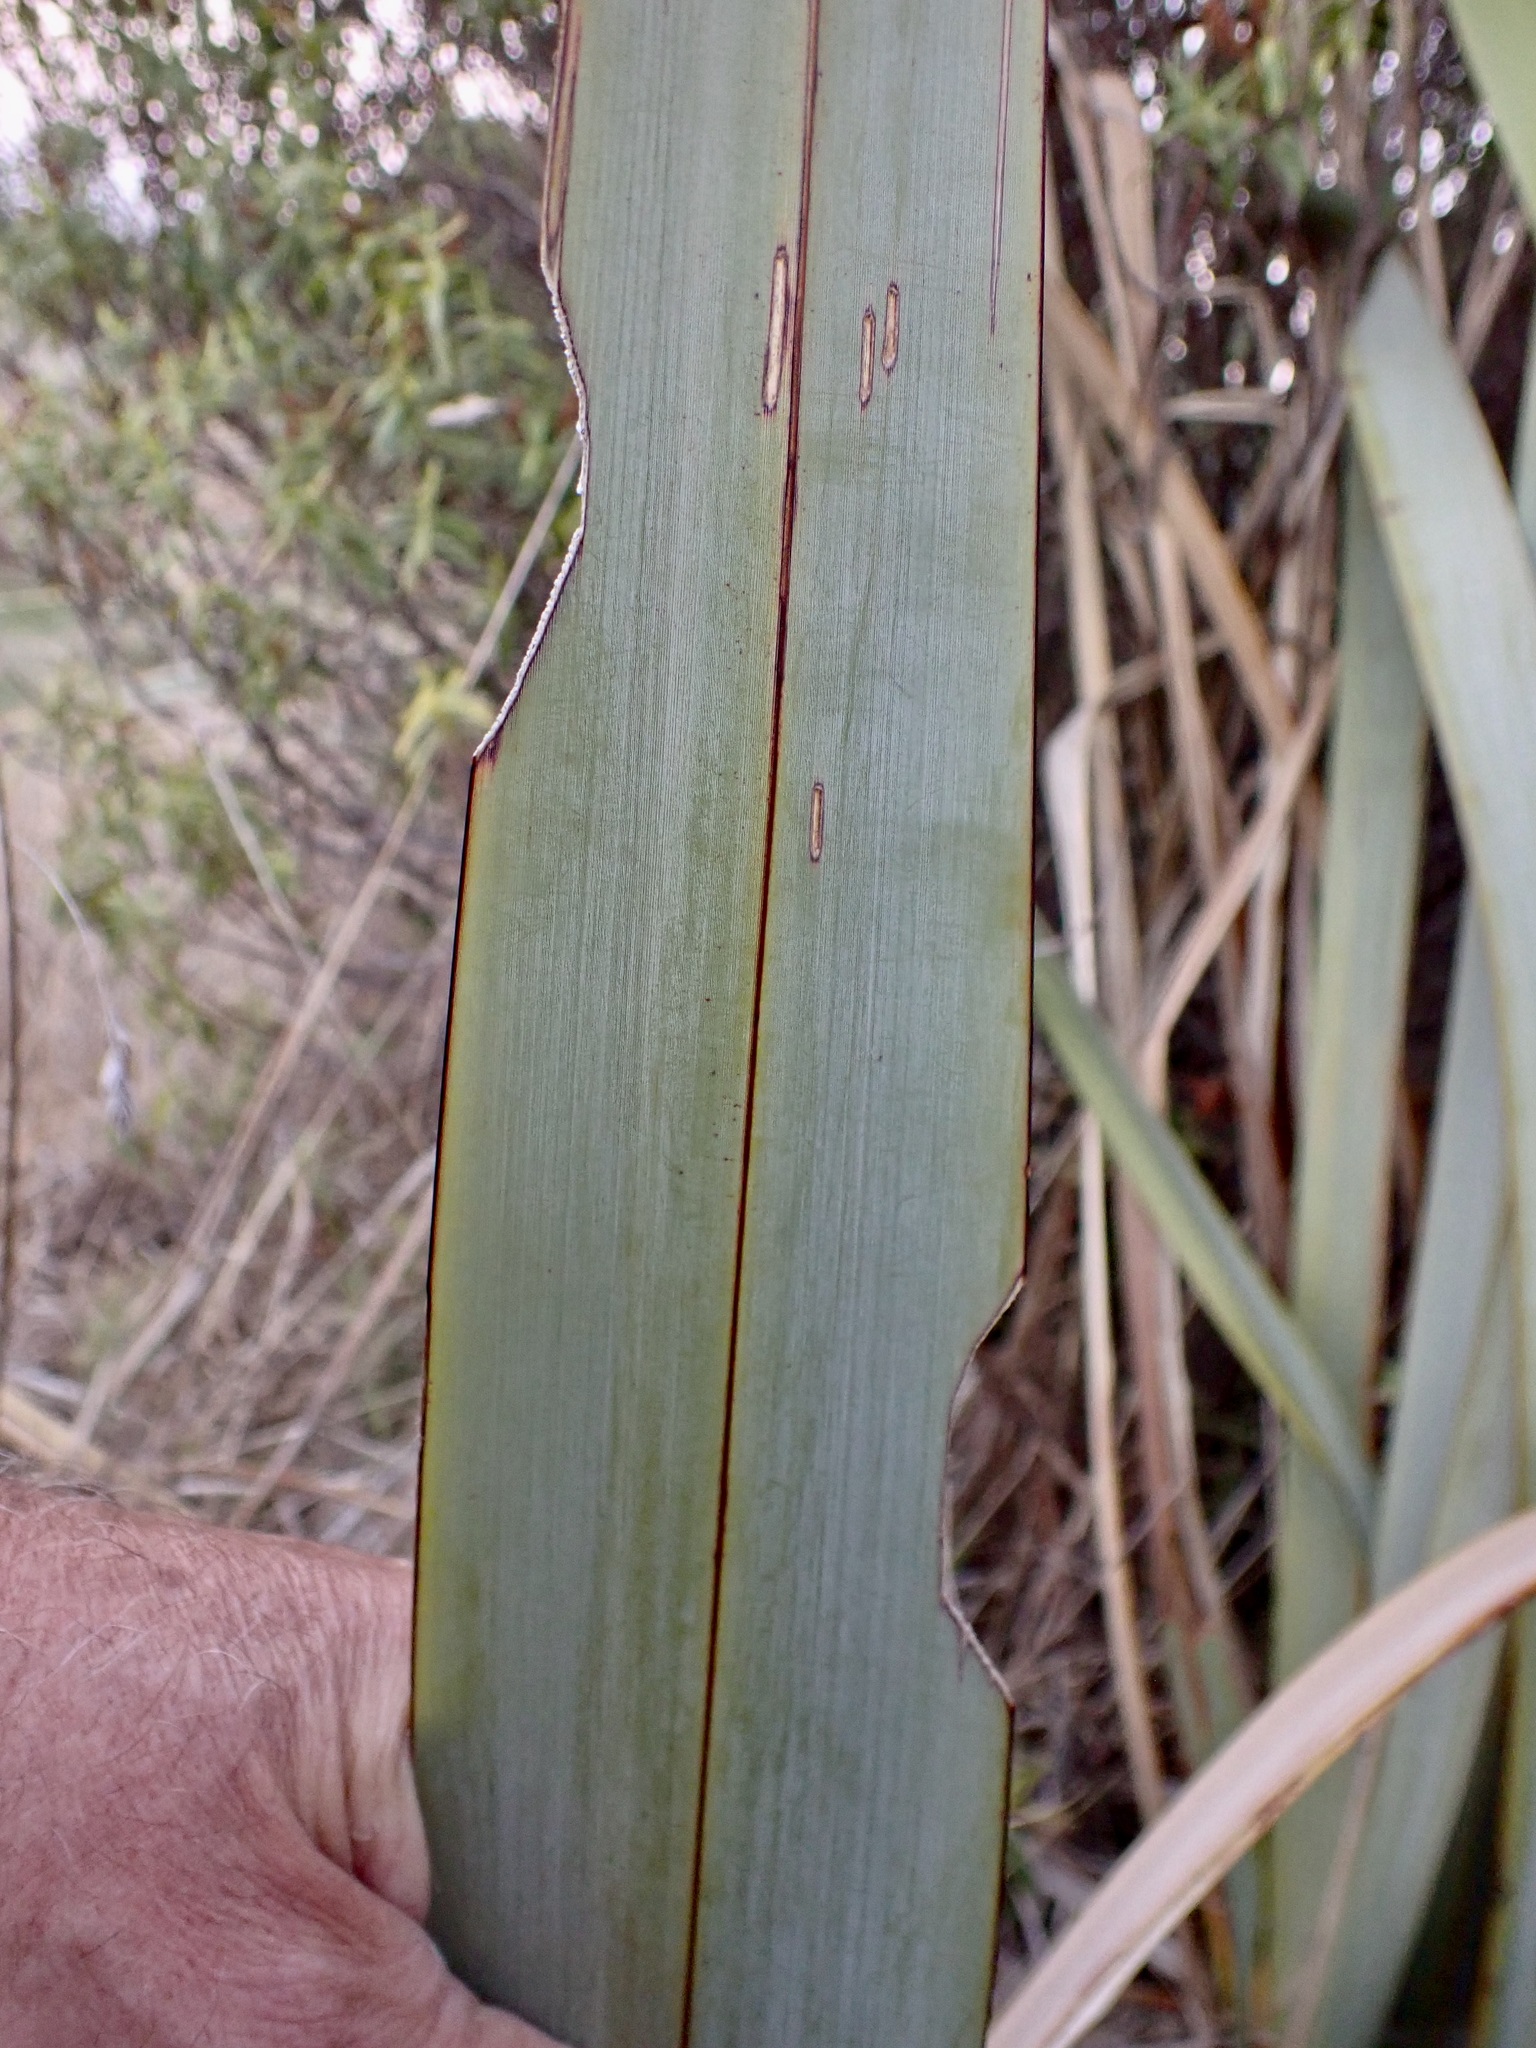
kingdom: Animalia
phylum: Arthropoda
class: Insecta
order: Lepidoptera
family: Noctuidae
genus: Ichneutica
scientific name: Ichneutica
